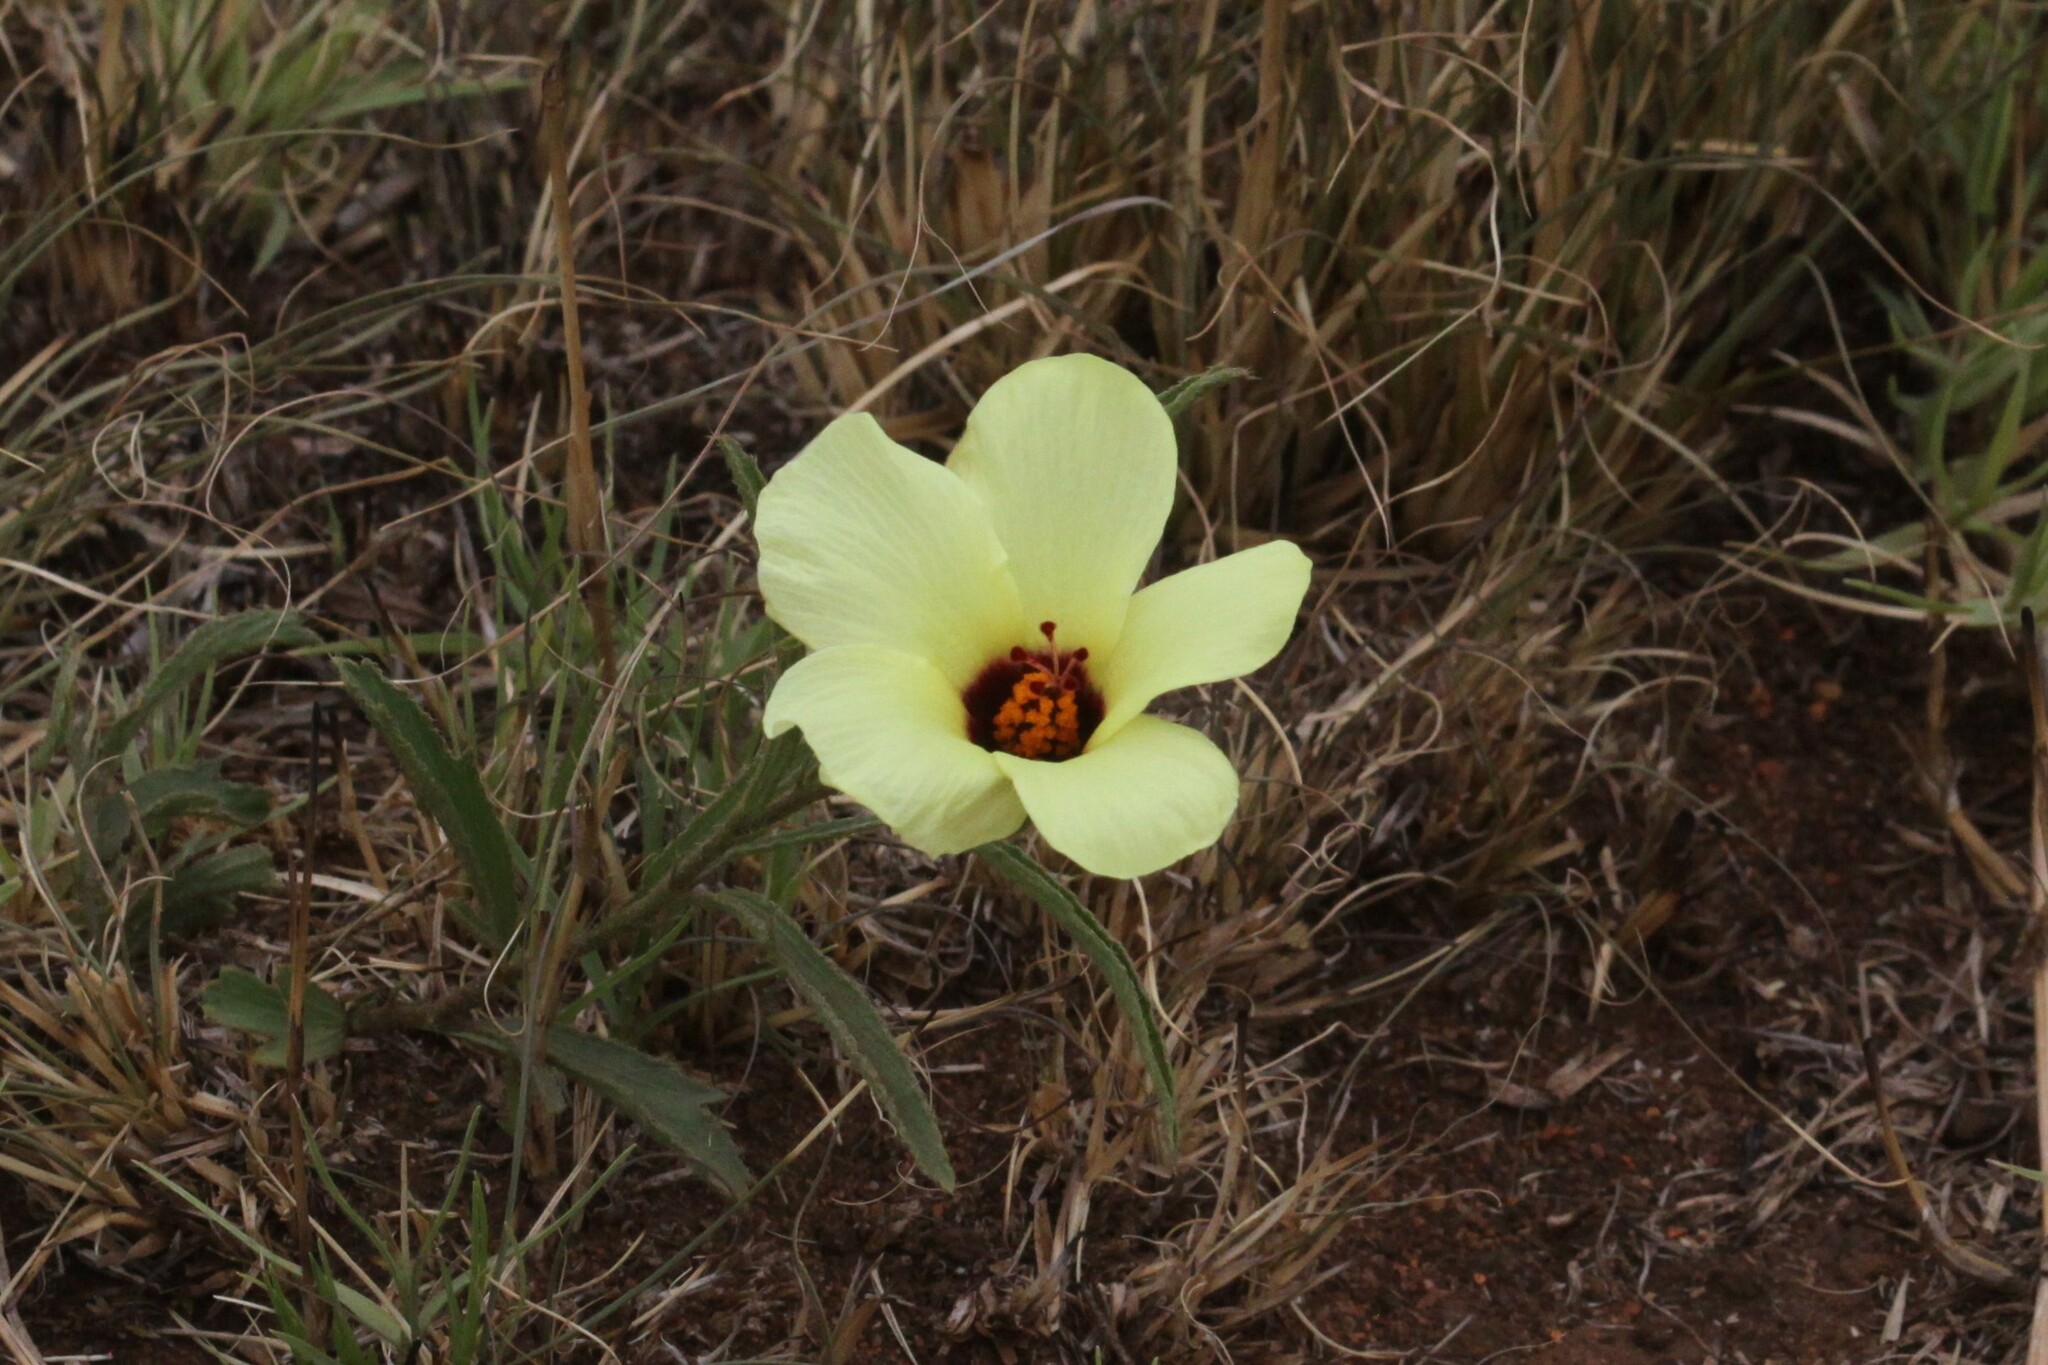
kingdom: Plantae
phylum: Tracheophyta
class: Magnoliopsida
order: Malvales
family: Malvaceae
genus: Hibiscus
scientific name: Hibiscus pusillus
